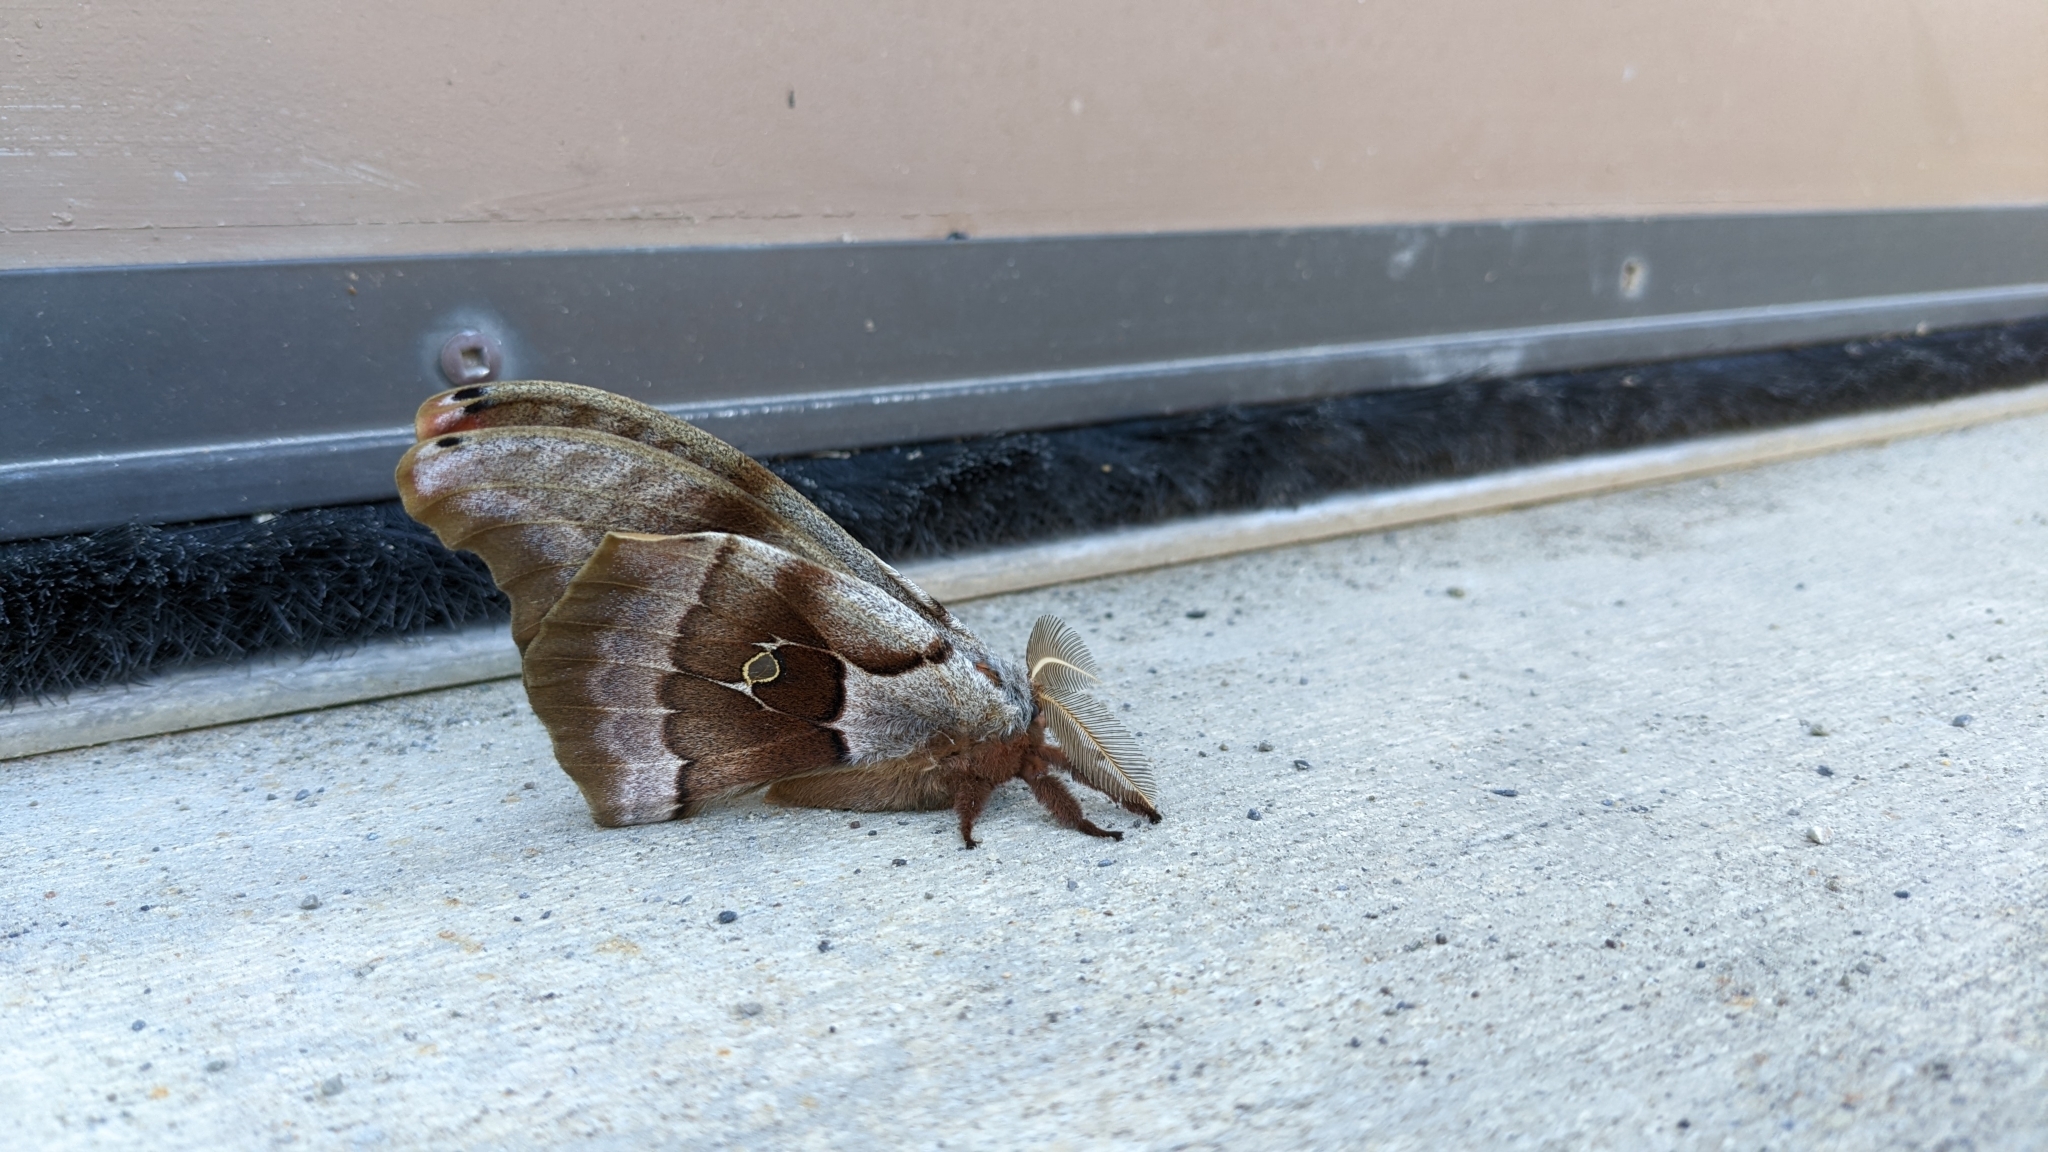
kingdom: Animalia
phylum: Arthropoda
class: Insecta
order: Lepidoptera
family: Saturniidae
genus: Antheraea
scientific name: Antheraea polyphemus
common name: Polyphemus moth
